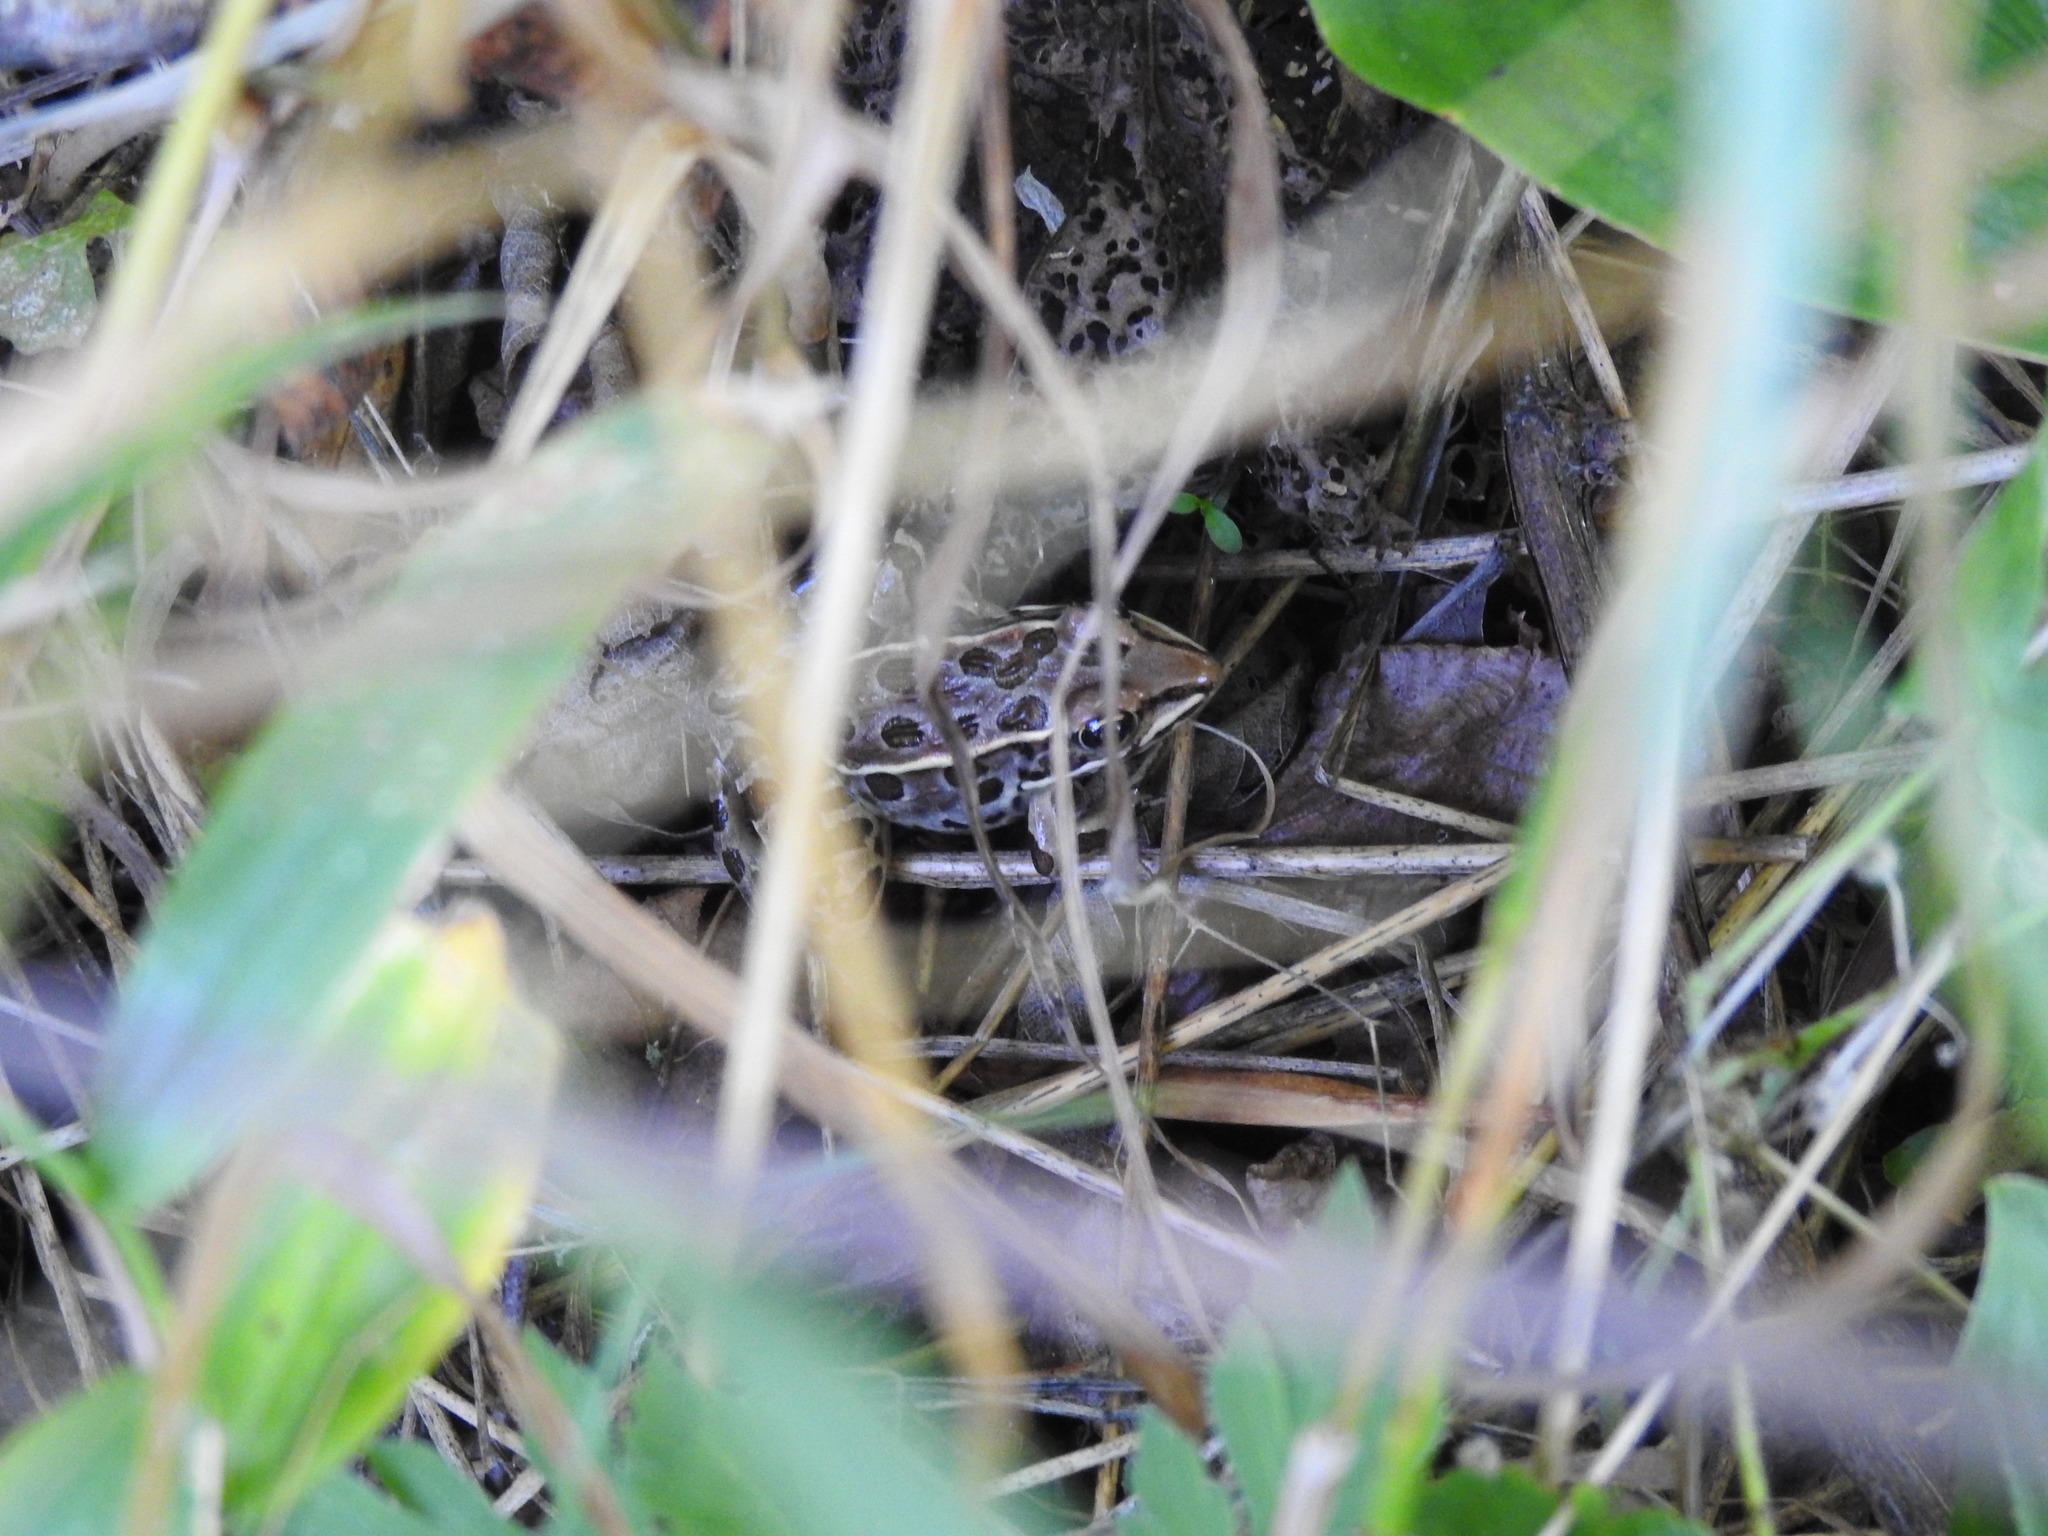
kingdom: Animalia
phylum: Chordata
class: Amphibia
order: Anura
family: Ranidae
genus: Lithobates
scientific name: Lithobates pipiens
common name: Northern leopard frog
